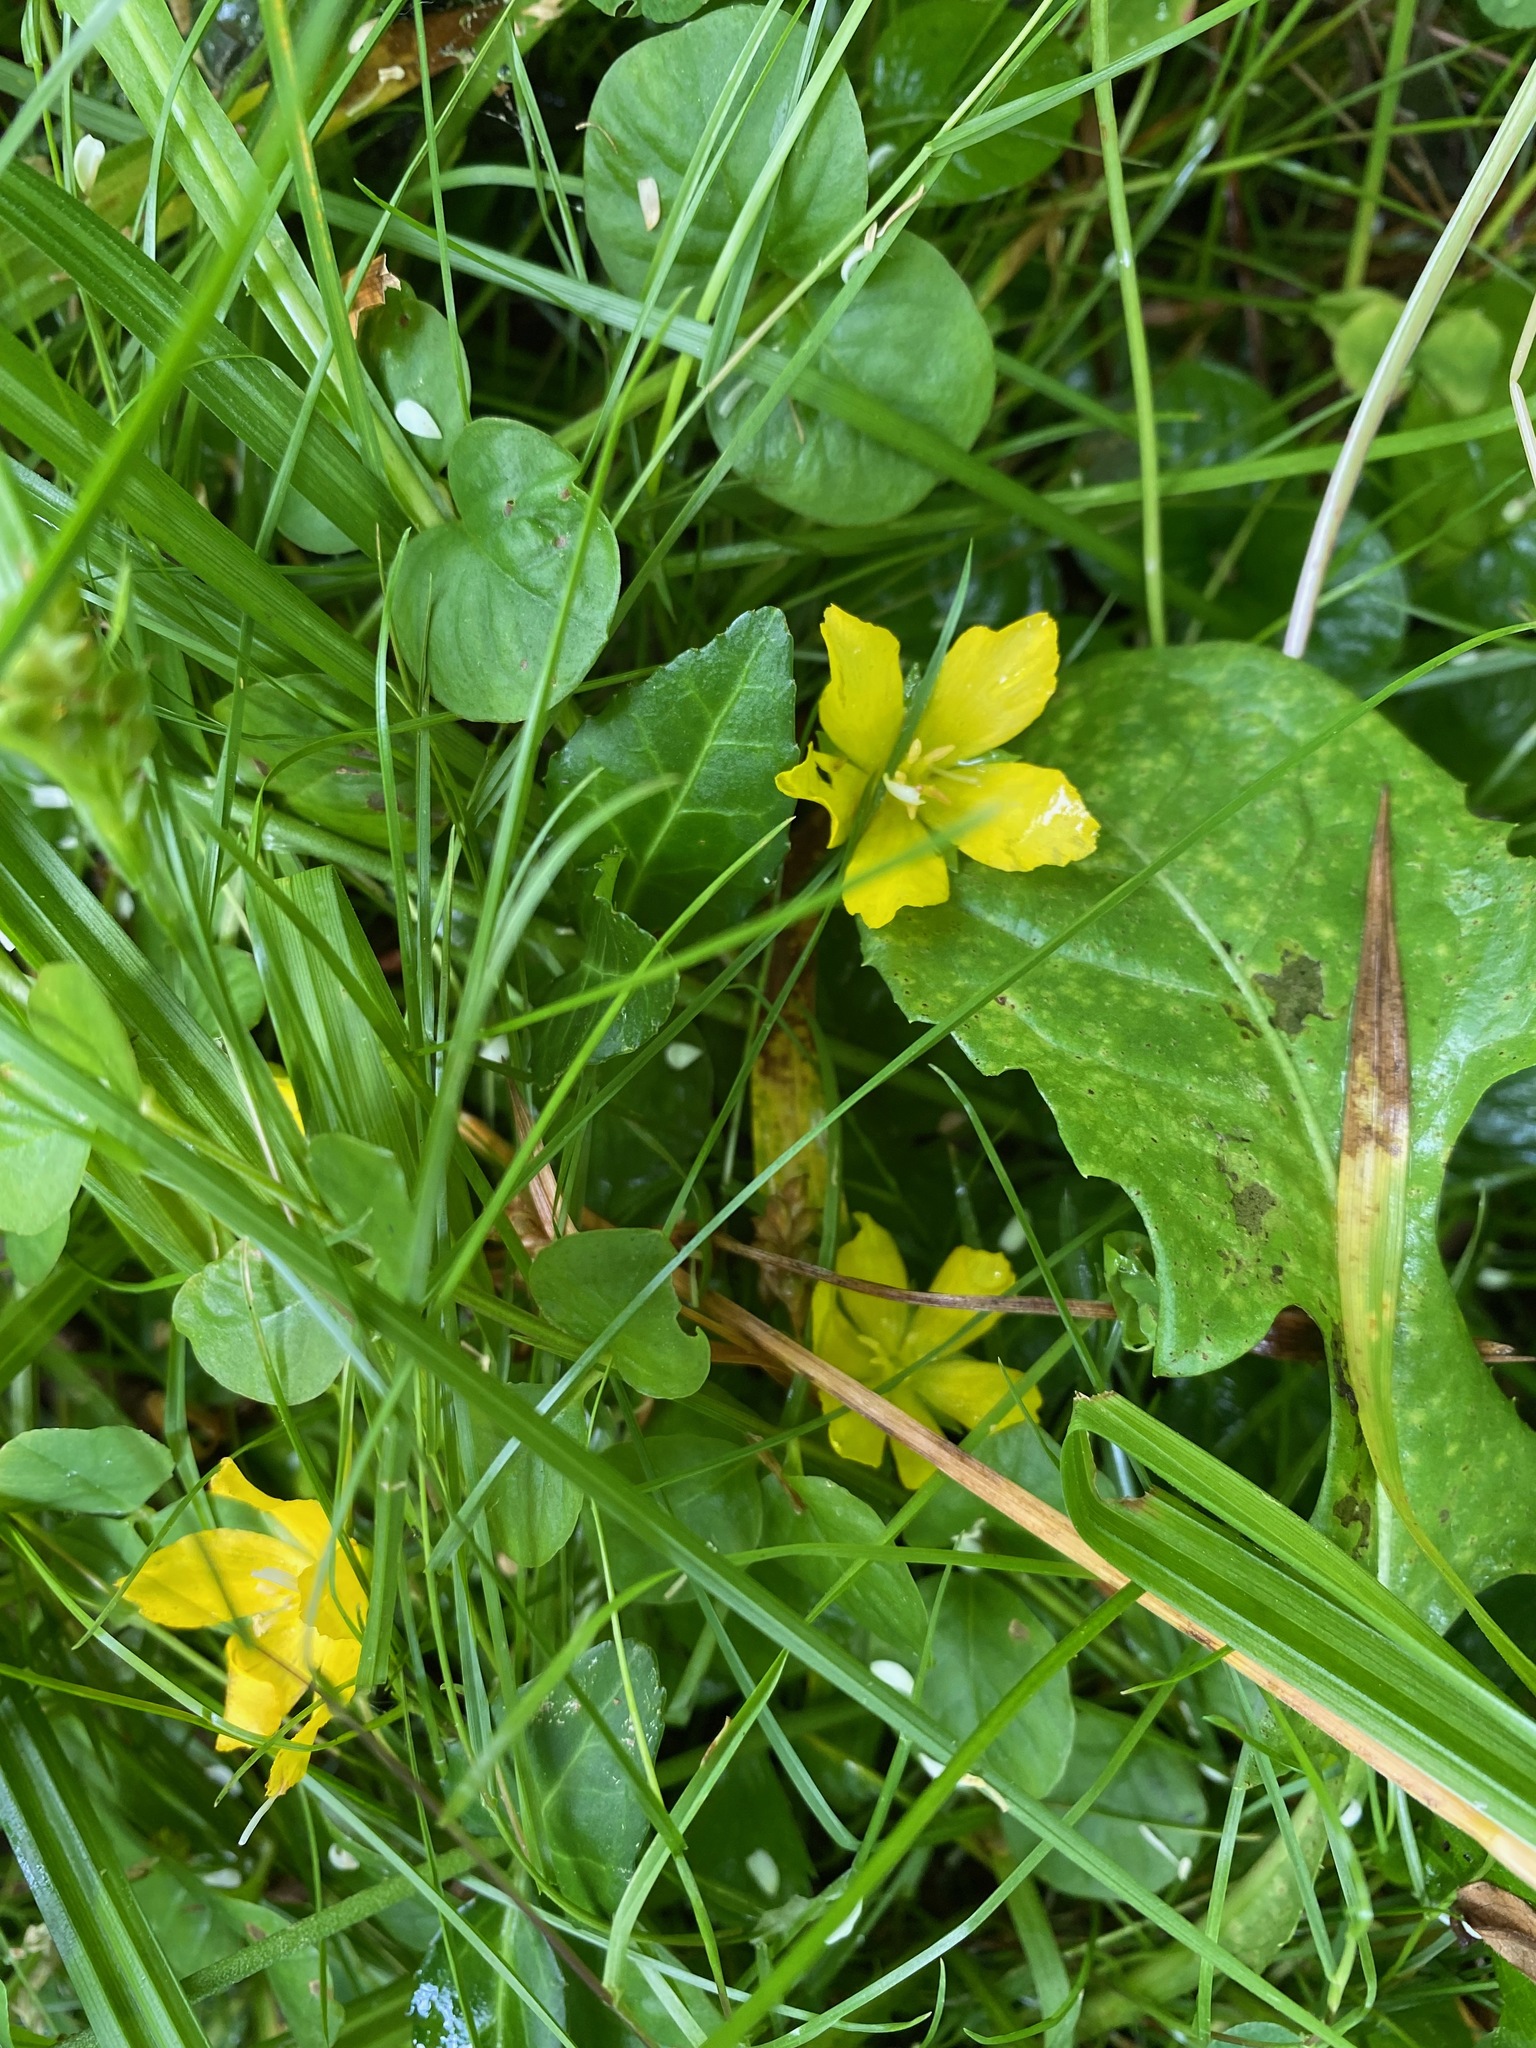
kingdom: Plantae
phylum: Tracheophyta
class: Magnoliopsida
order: Ericales
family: Primulaceae
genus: Lysimachia
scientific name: Lysimachia nummularia
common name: Moneywort
